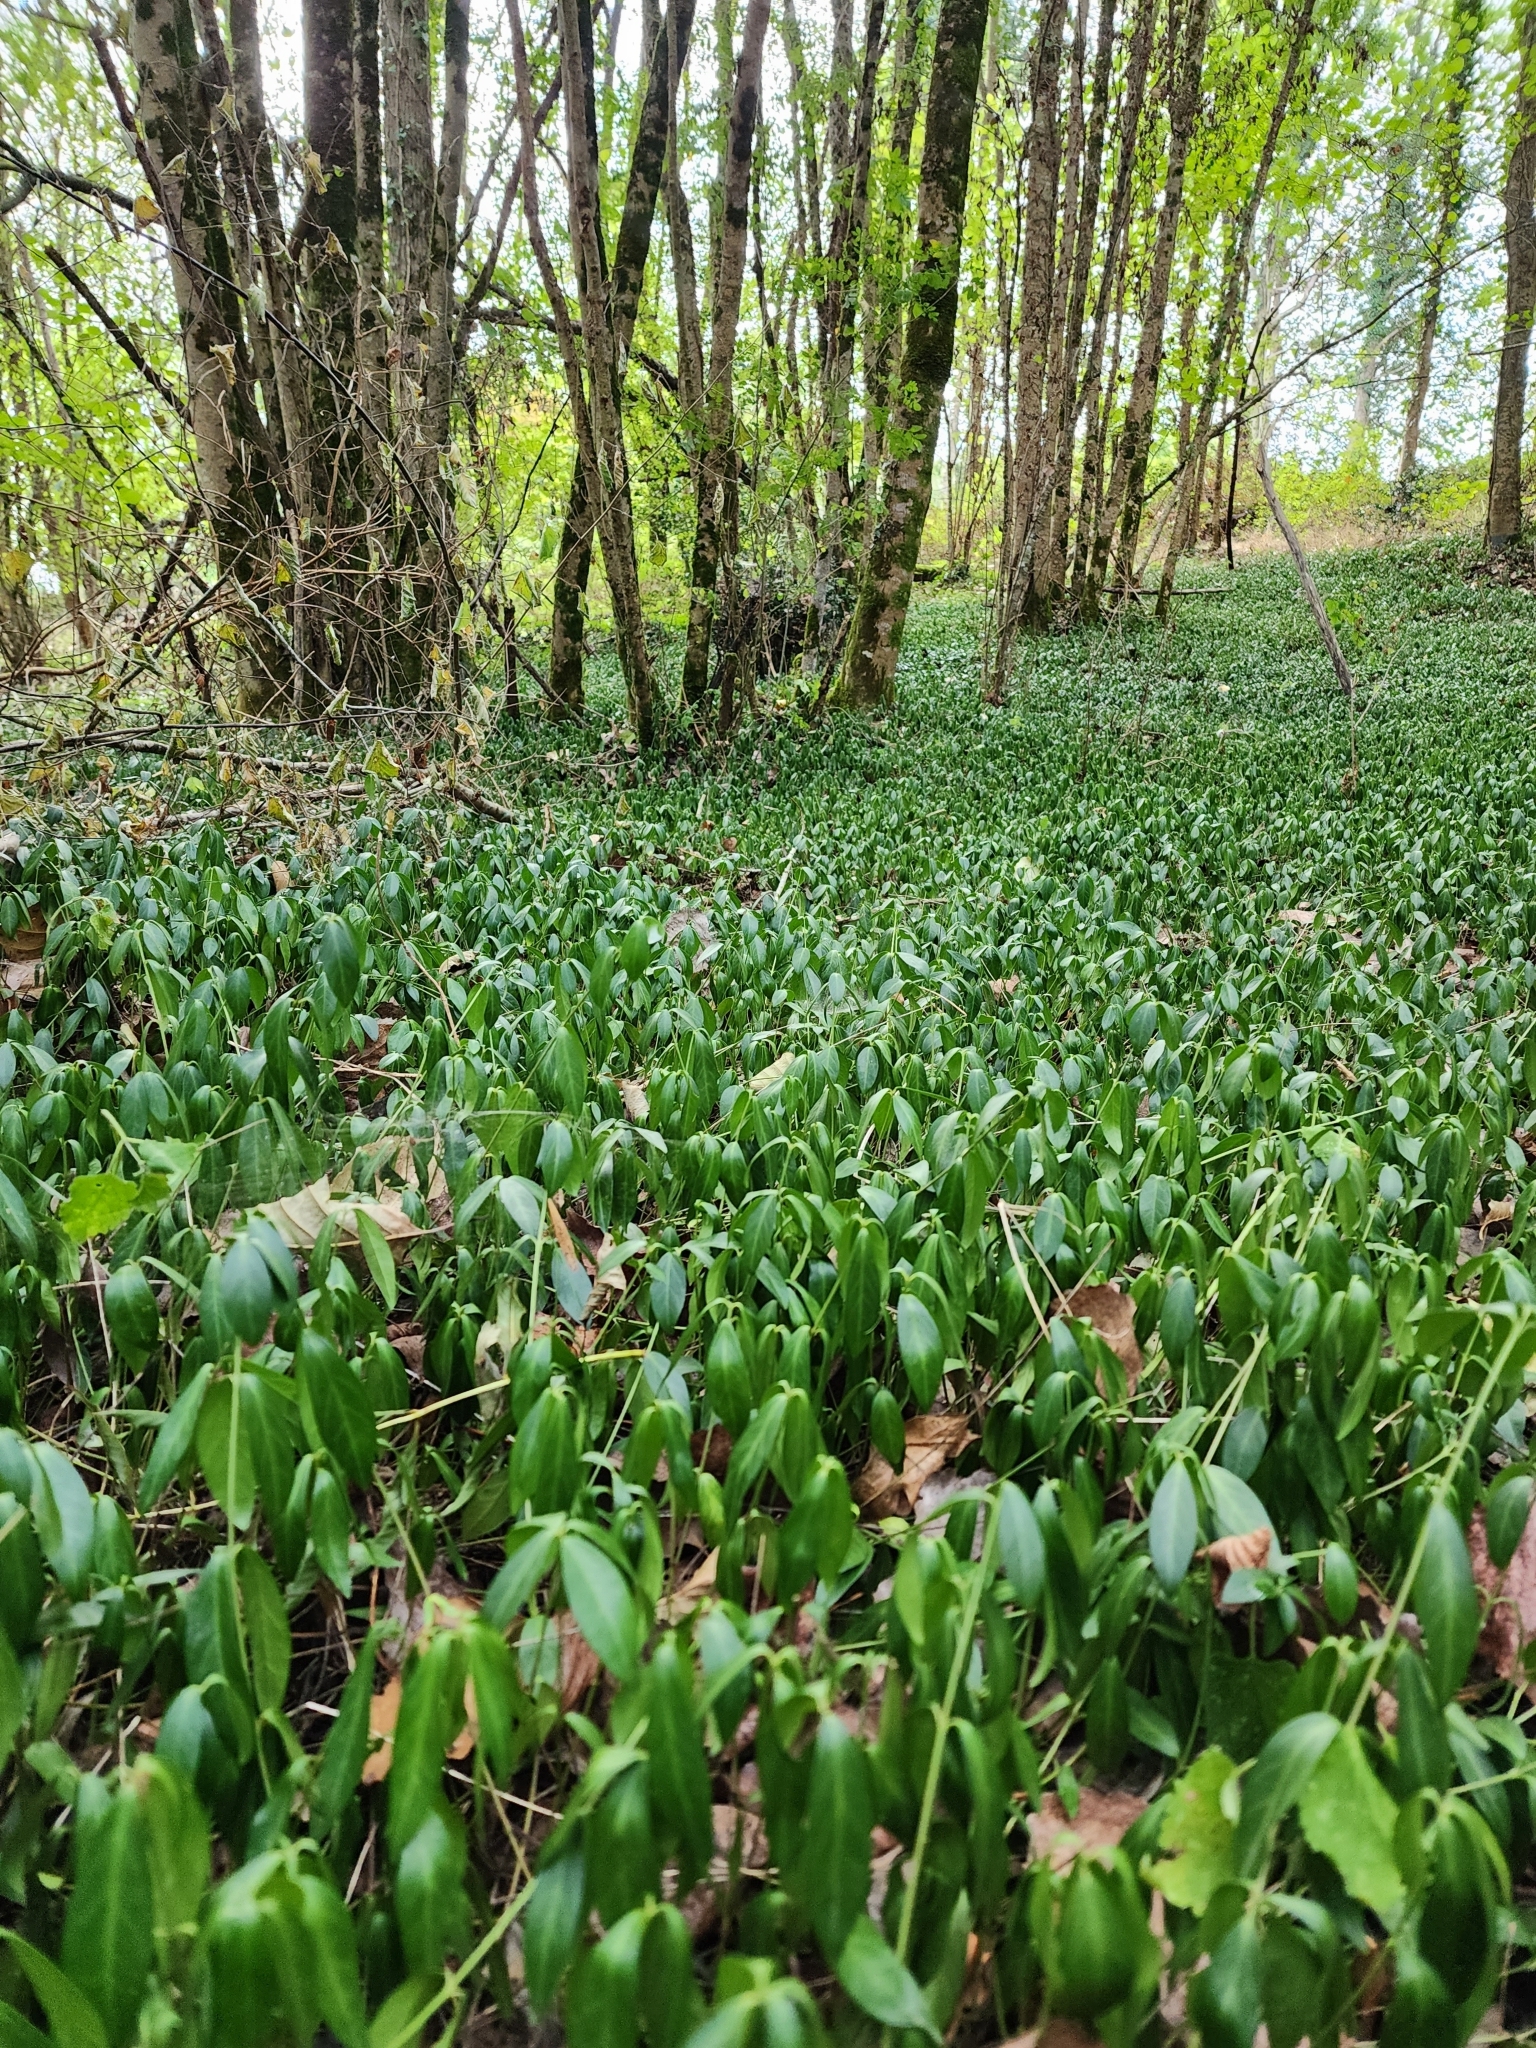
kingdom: Plantae
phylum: Tracheophyta
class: Magnoliopsida
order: Gentianales
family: Apocynaceae
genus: Vinca
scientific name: Vinca minor
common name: Lesser periwinkle
